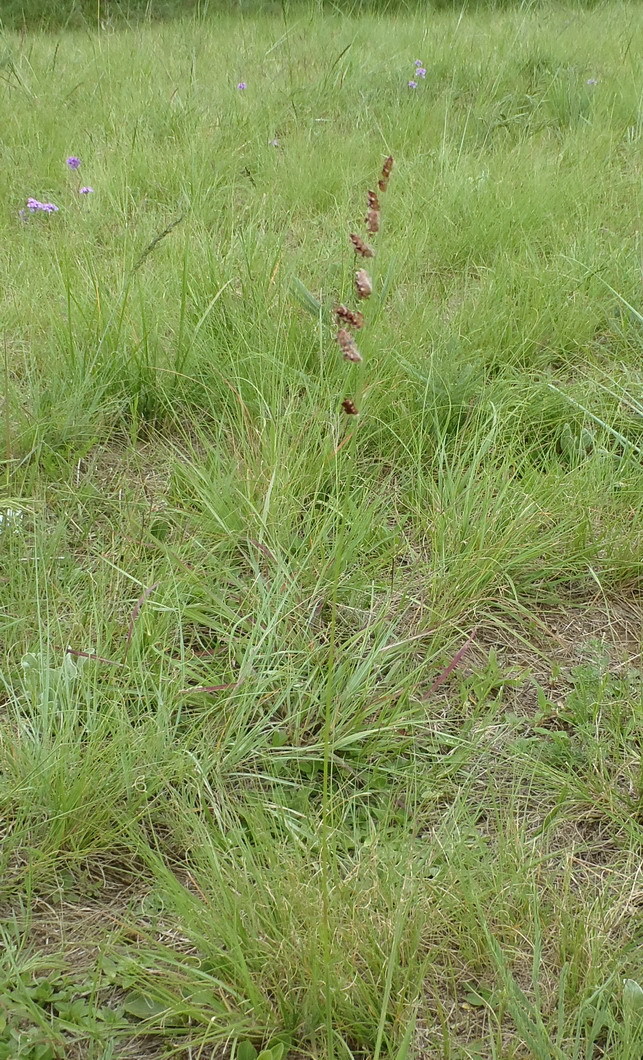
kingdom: Plantae
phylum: Tracheophyta
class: Liliopsida
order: Poales
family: Poaceae
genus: Urochloa
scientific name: Urochloa serrata
